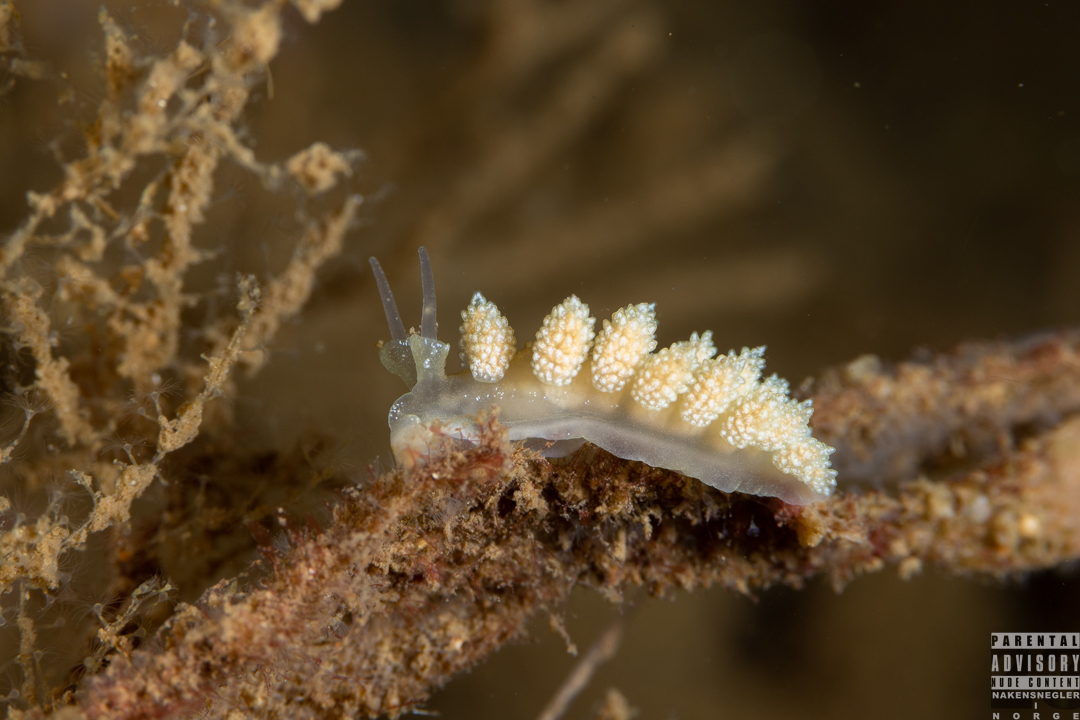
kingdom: Animalia
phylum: Mollusca
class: Gastropoda
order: Nudibranchia
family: Dotidae
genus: Doto
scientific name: Doto fragilis
